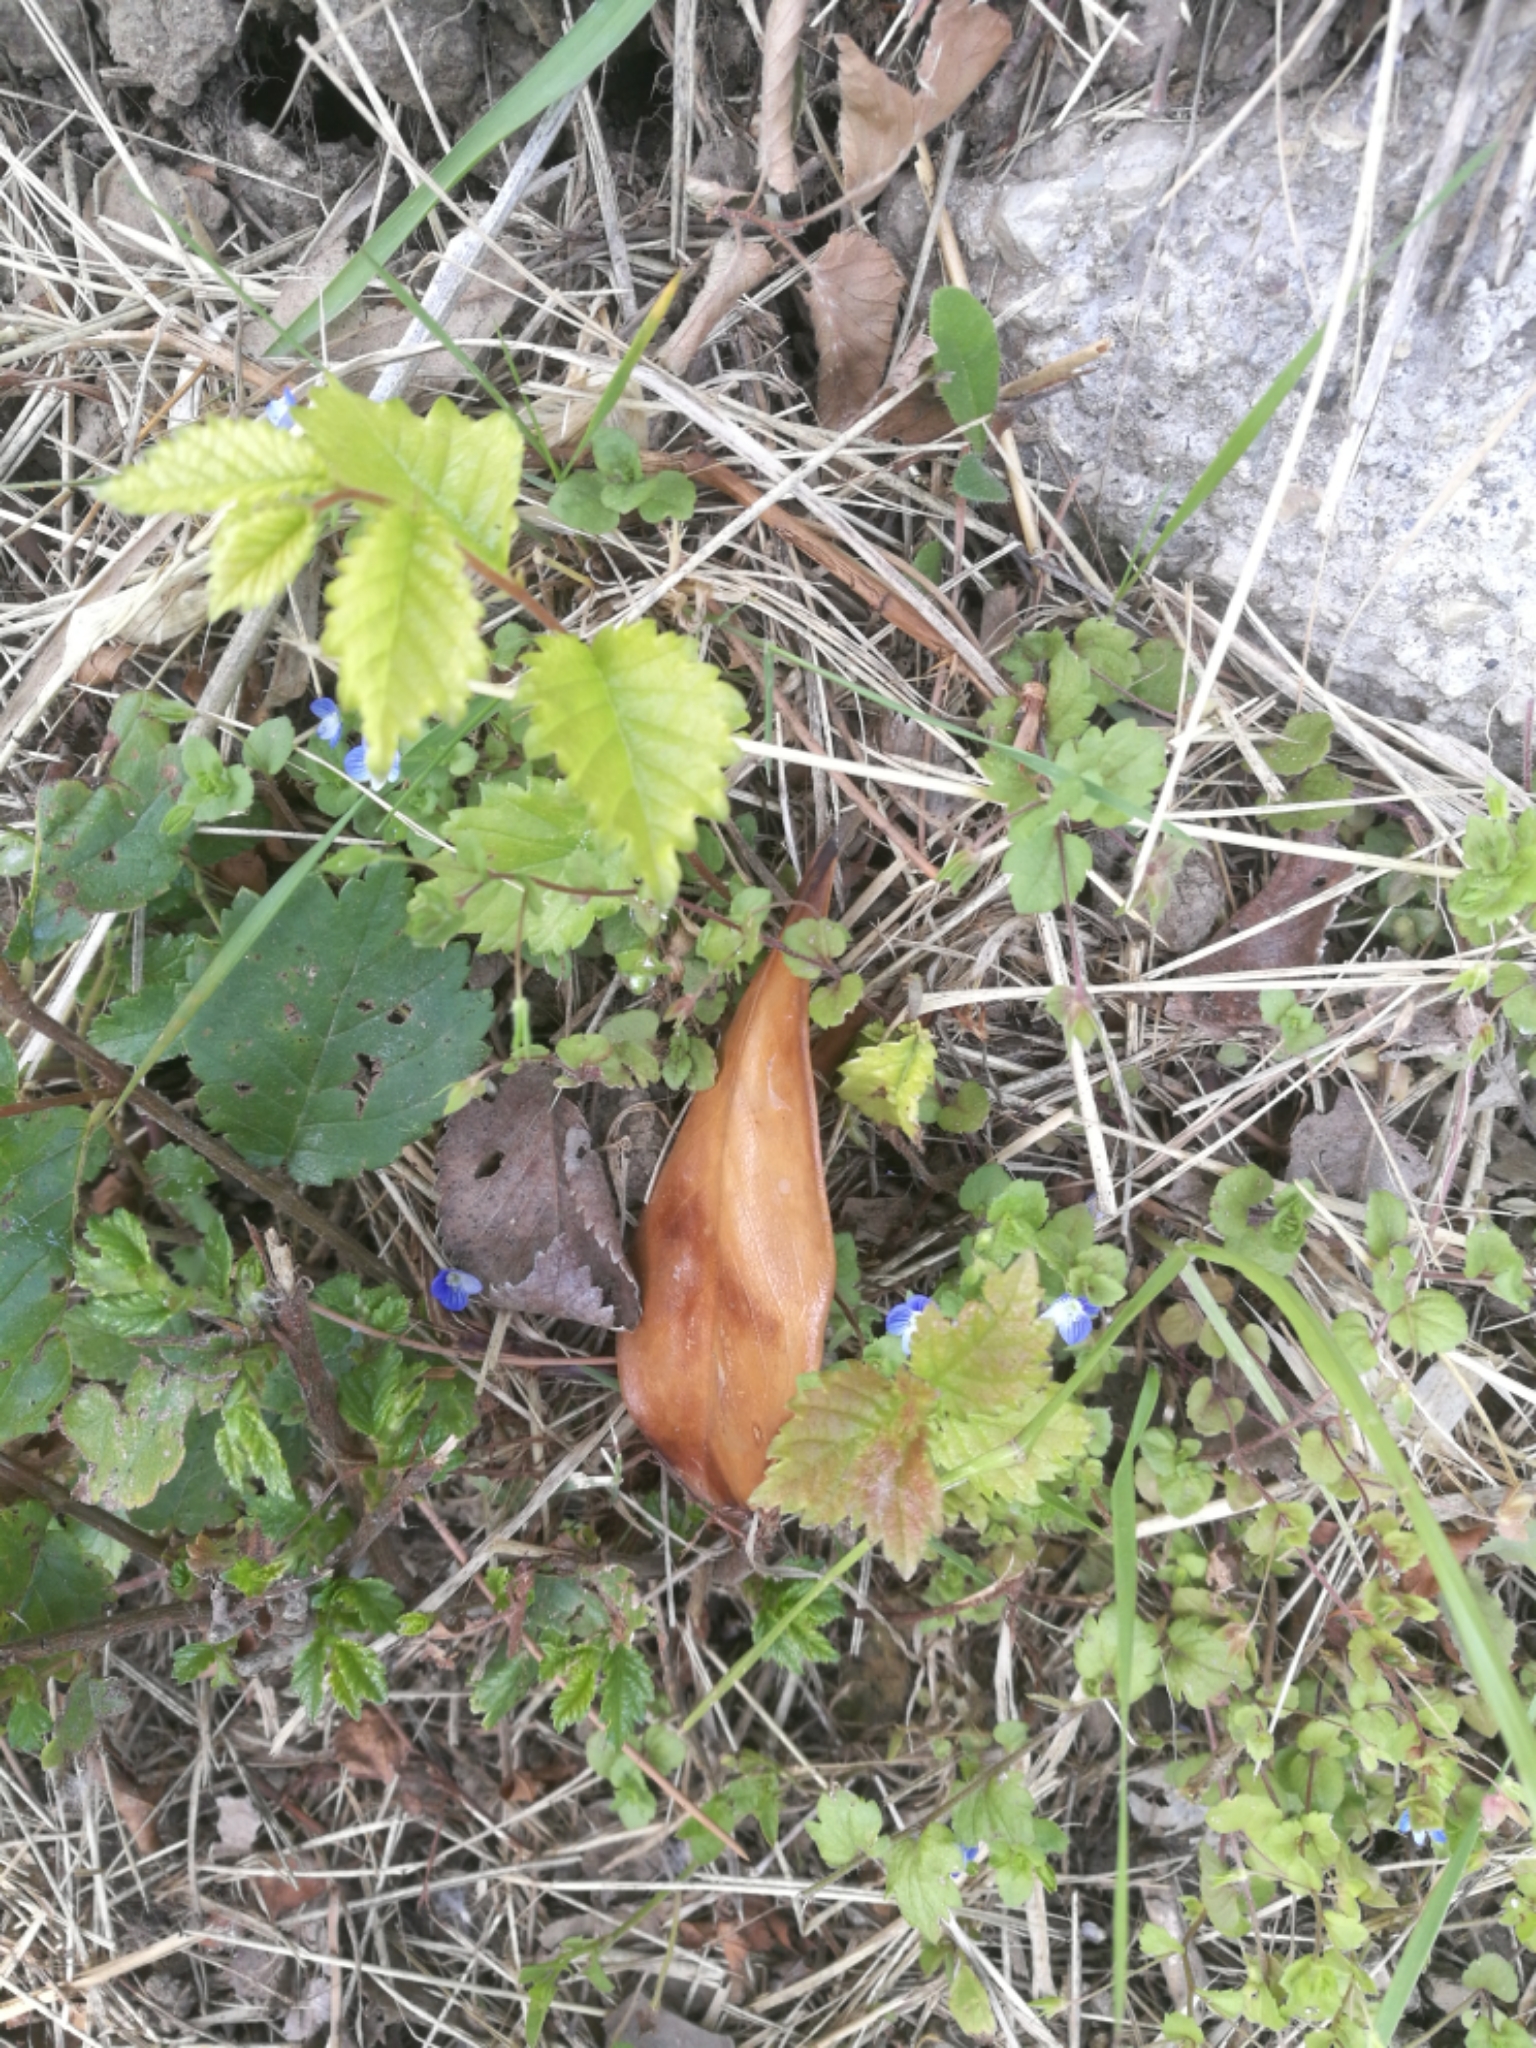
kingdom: Plantae
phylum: Tracheophyta
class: Magnoliopsida
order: Lamiales
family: Plantaginaceae
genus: Veronica
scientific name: Veronica persica
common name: Common field-speedwell
